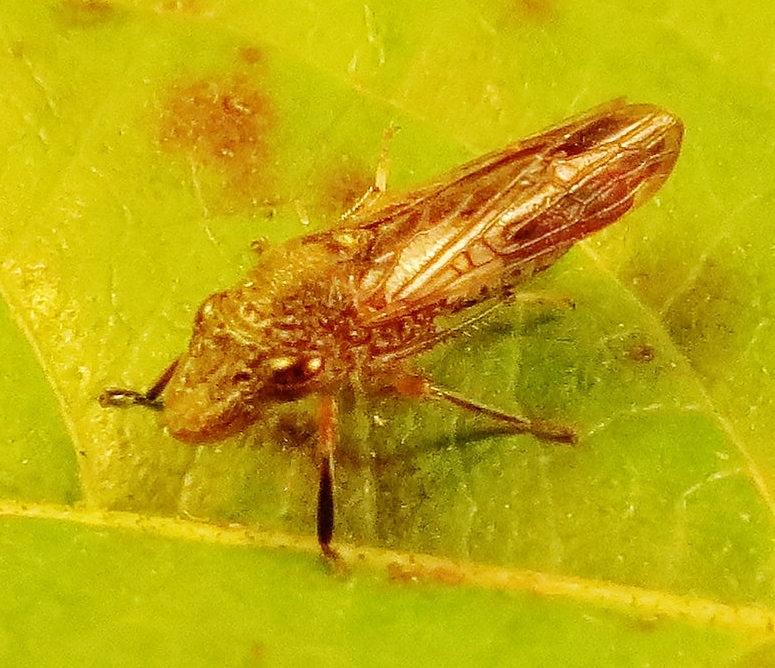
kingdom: Animalia
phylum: Arthropoda
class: Insecta
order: Hemiptera
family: Cicadellidae
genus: Homalodisca
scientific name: Homalodisca vitripennis
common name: Glassy-winged sharpshooter
